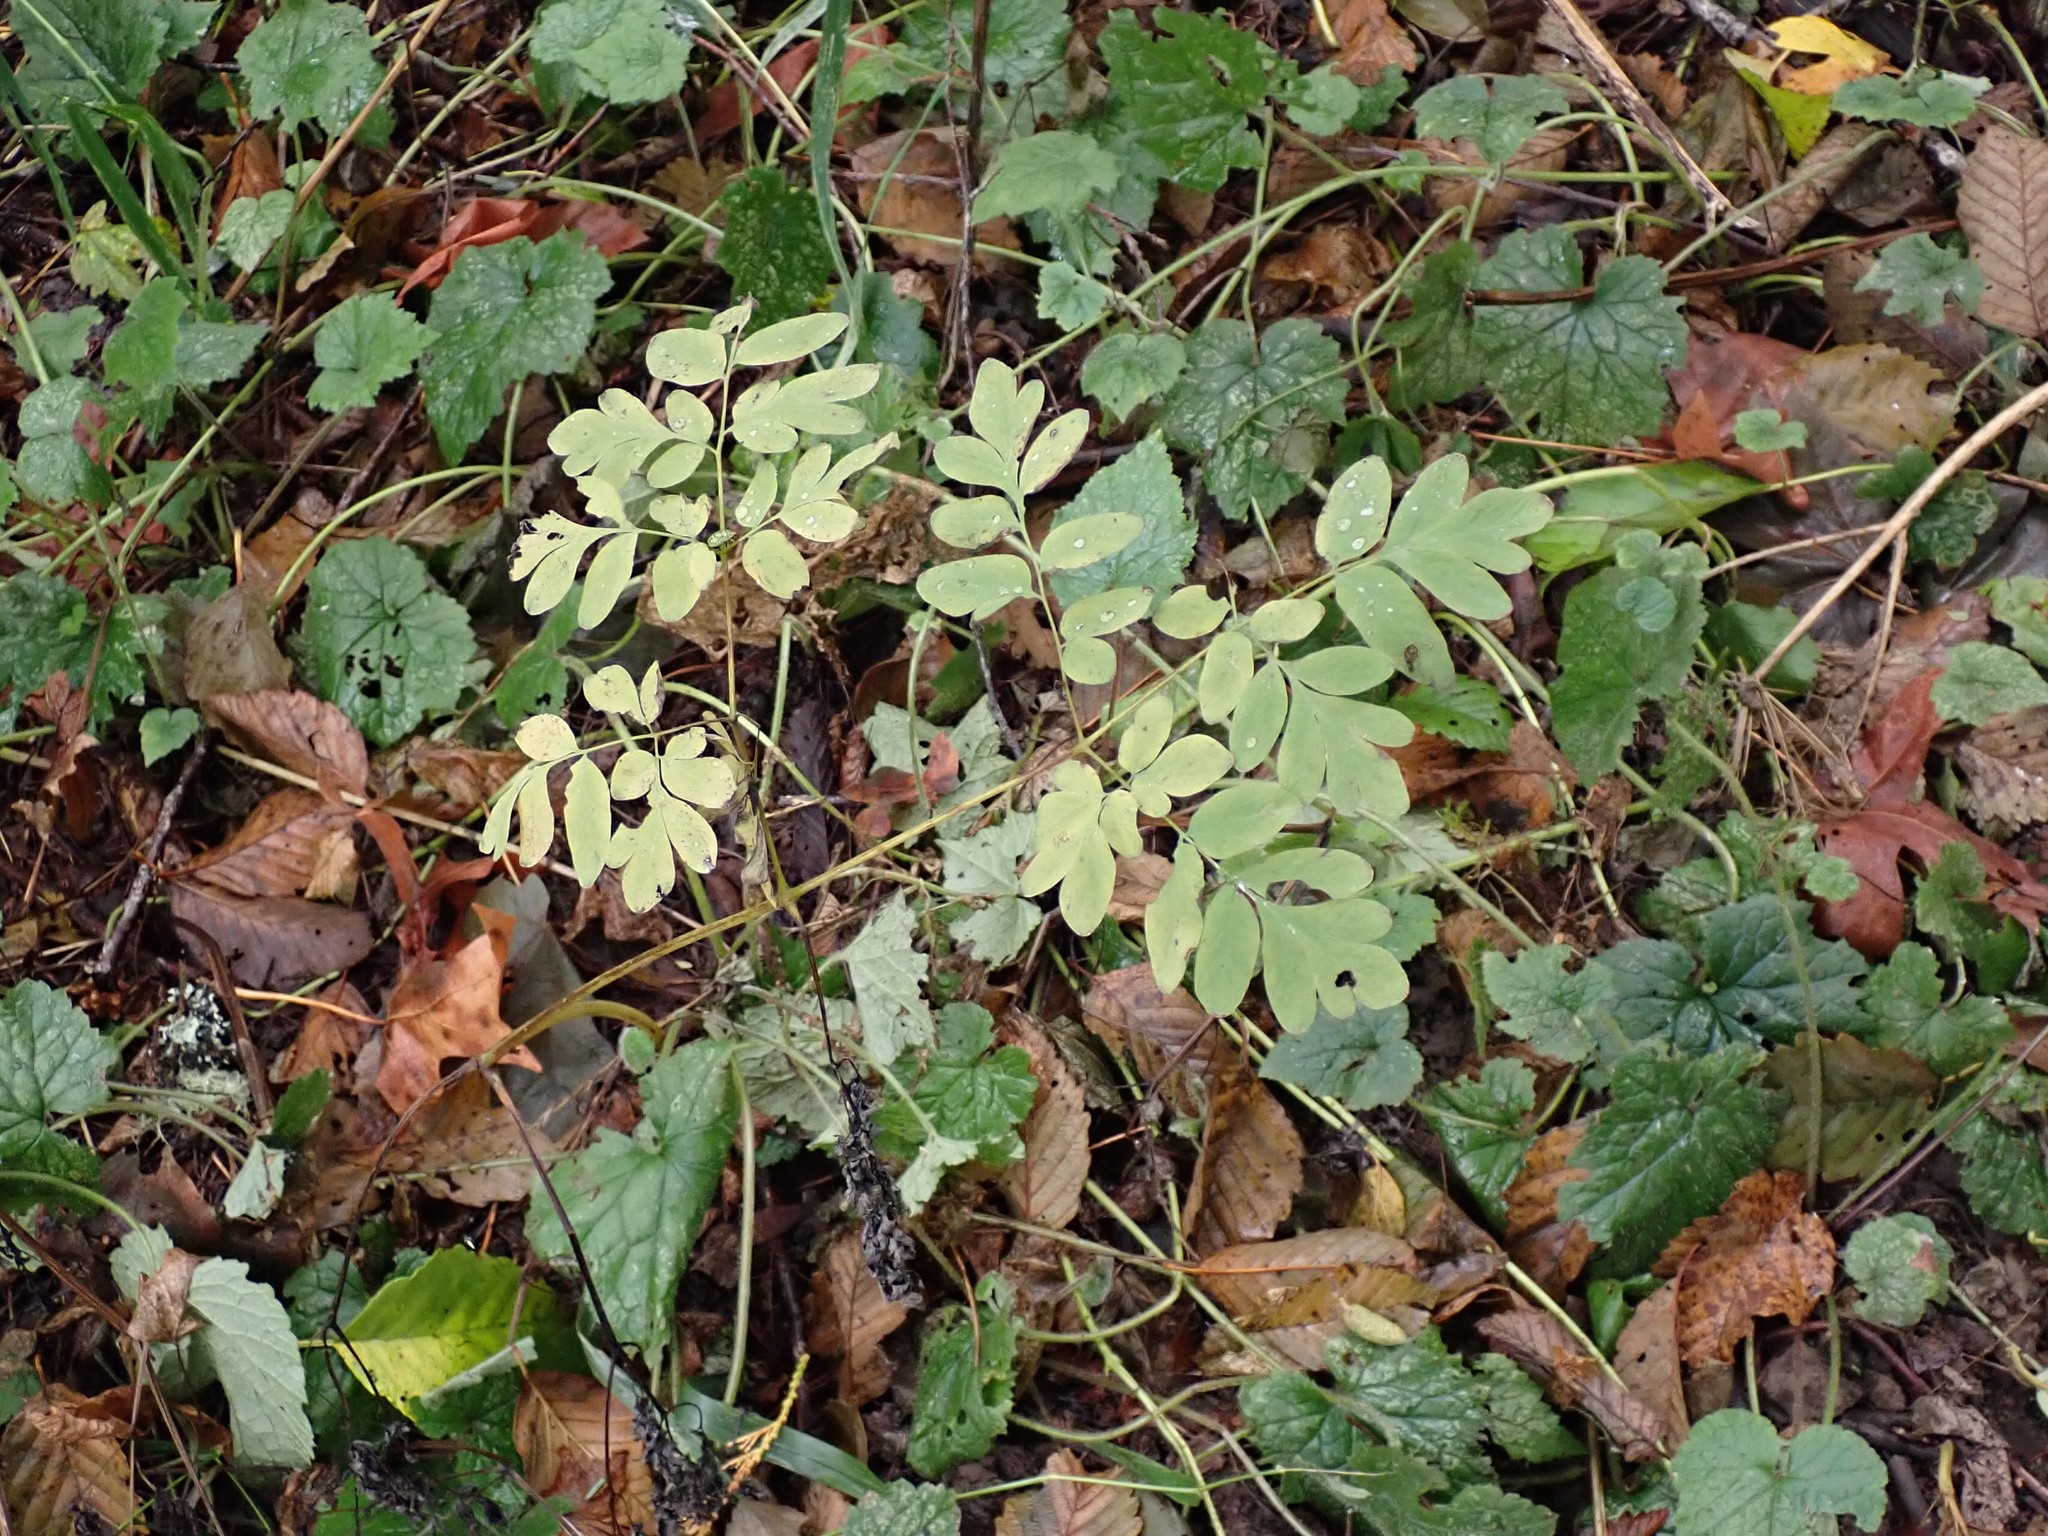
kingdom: Plantae
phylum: Tracheophyta
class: Magnoliopsida
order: Ranunculales
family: Papaveraceae
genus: Corydalis
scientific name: Corydalis scouleri
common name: Scouler's corydalis
